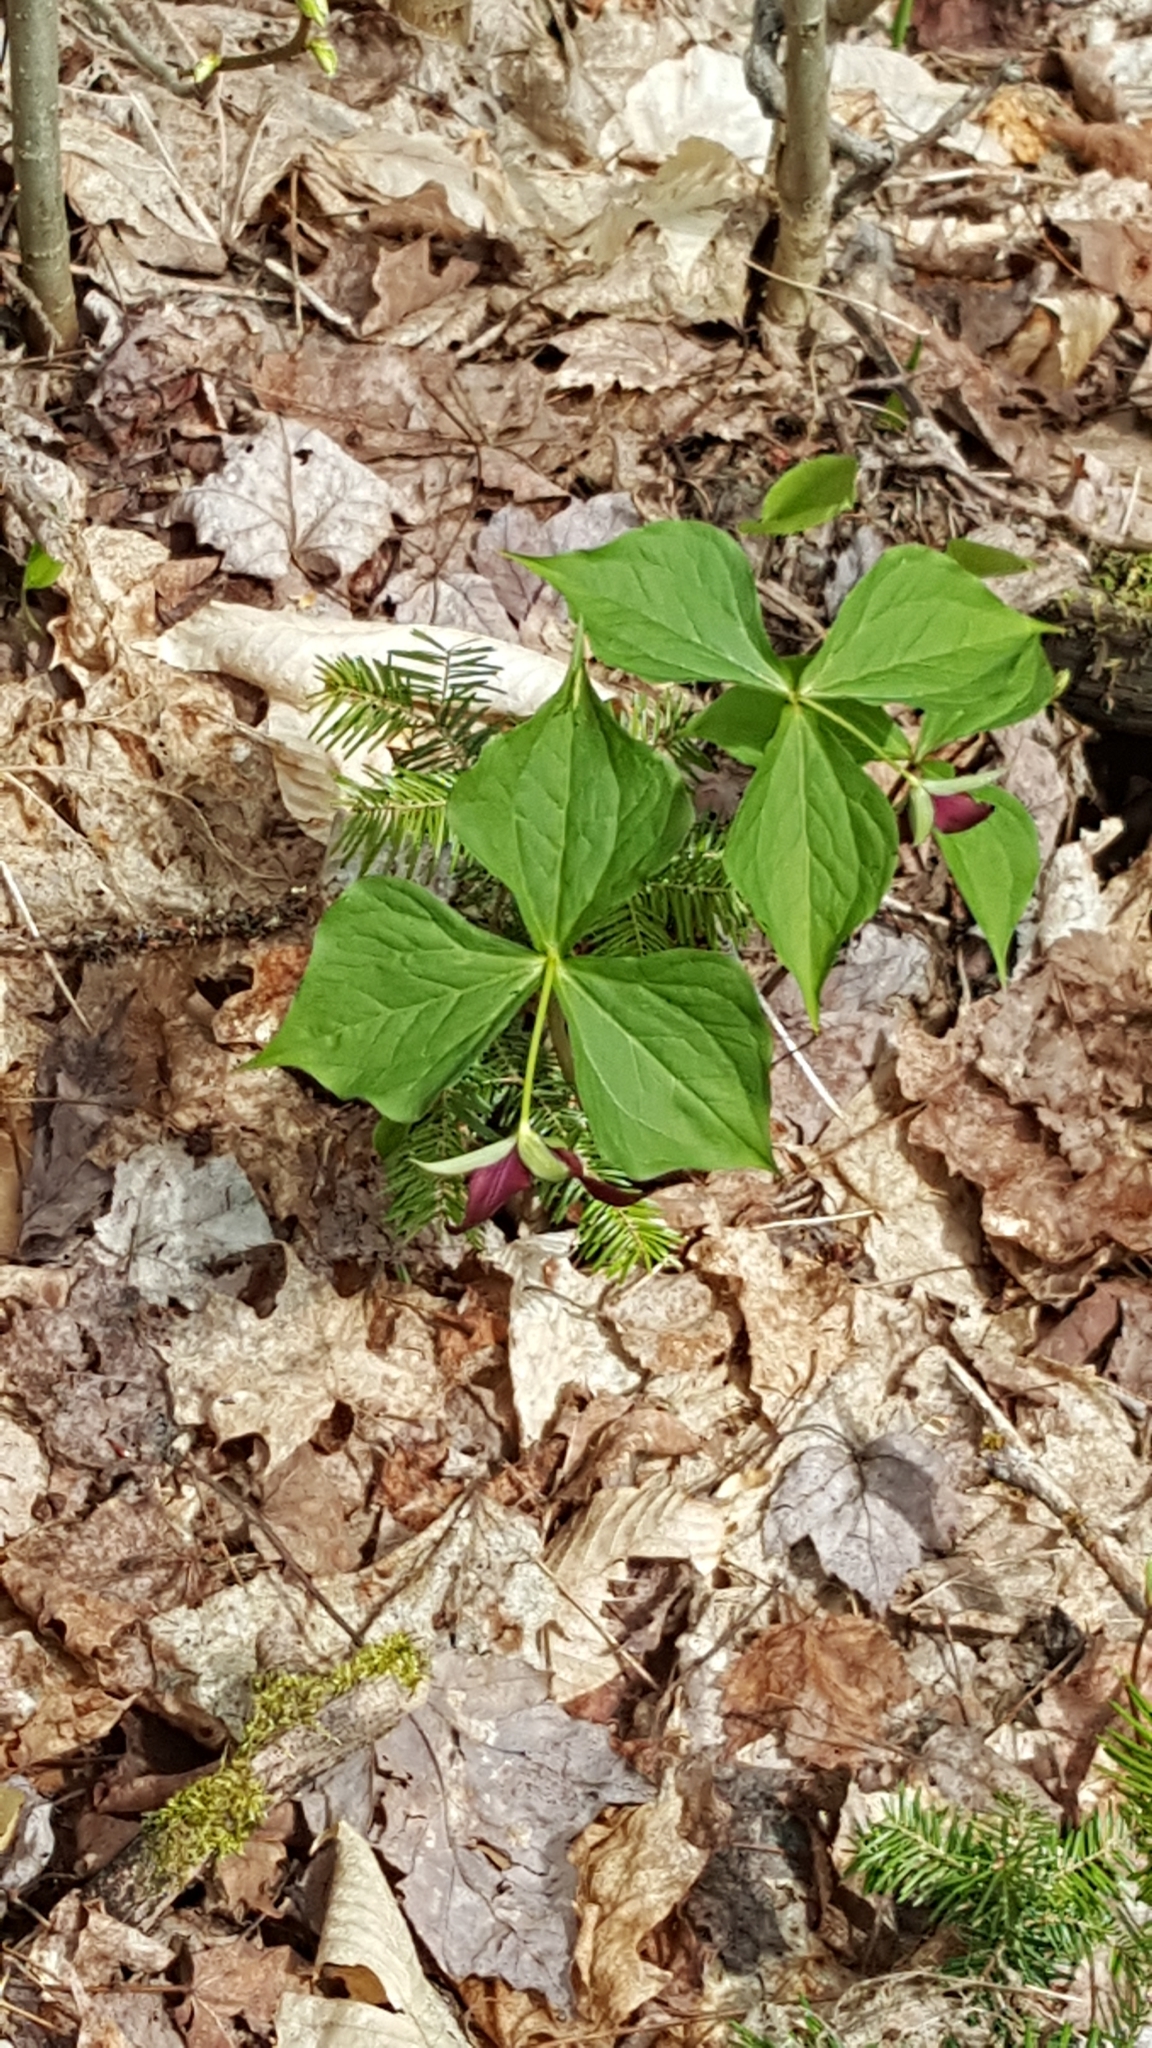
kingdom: Plantae
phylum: Tracheophyta
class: Liliopsida
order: Liliales
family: Melanthiaceae
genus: Trillium
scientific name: Trillium erectum
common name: Purple trillium
